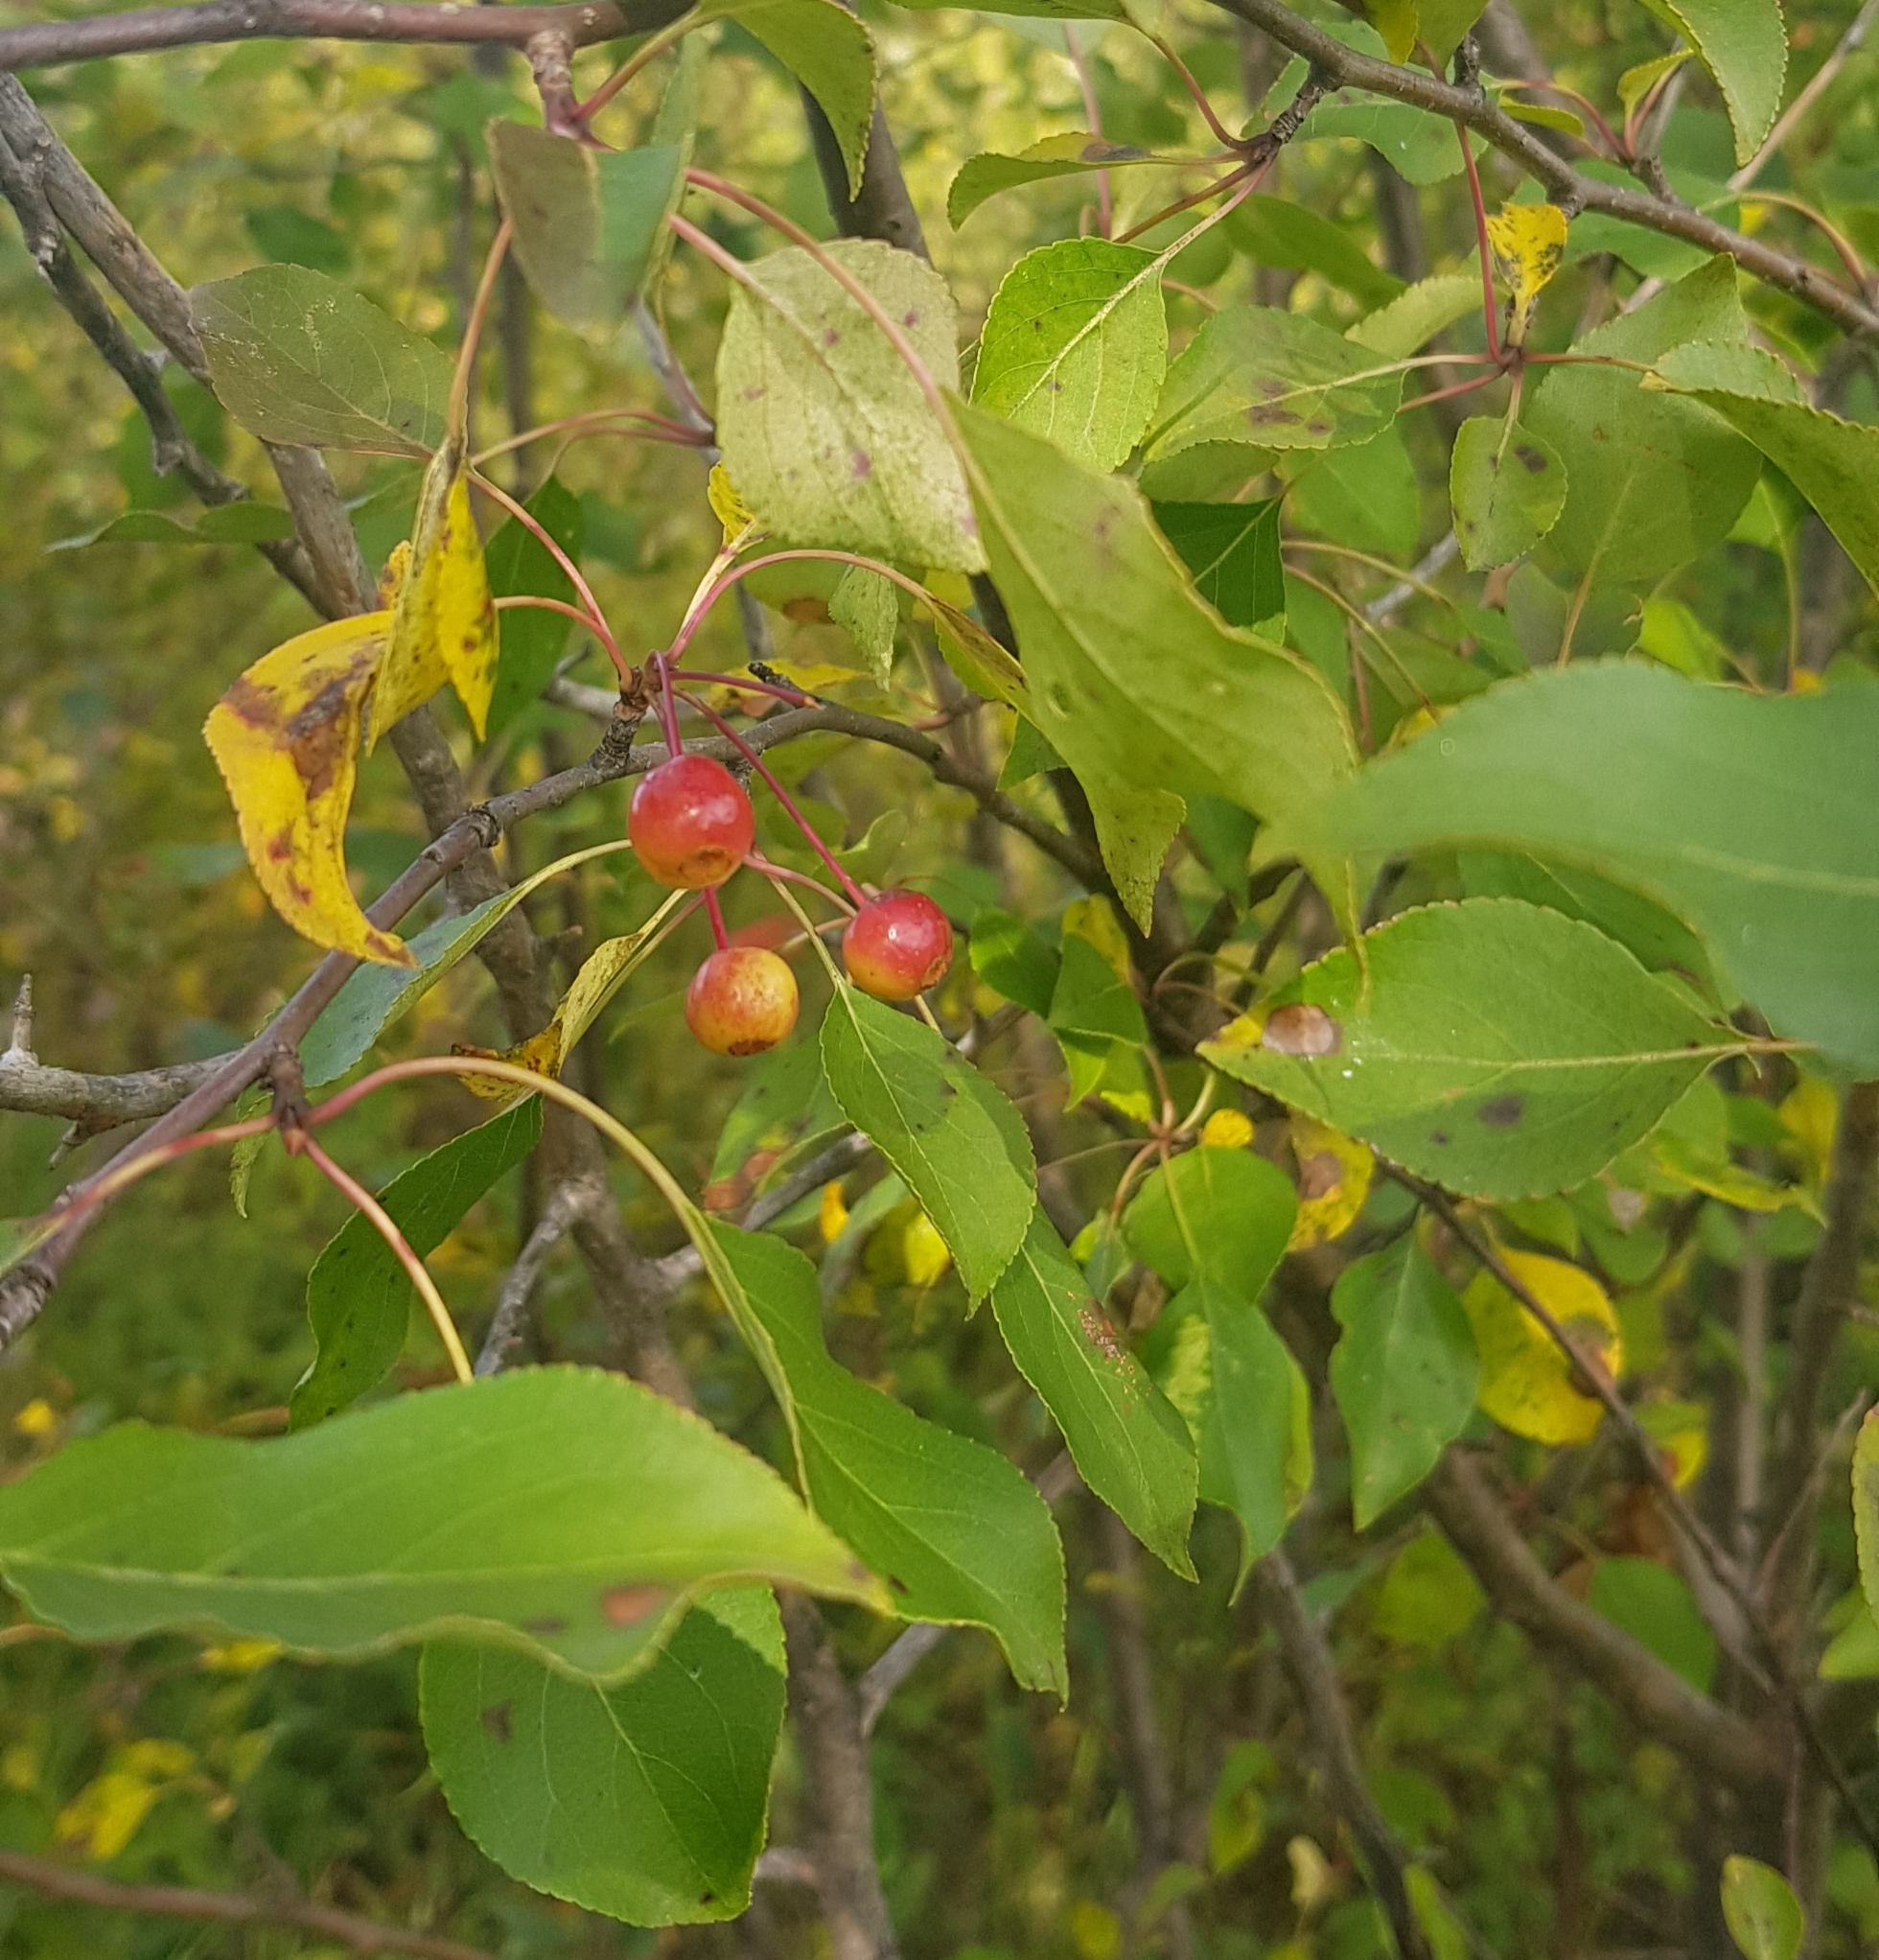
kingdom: Plantae
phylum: Tracheophyta
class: Magnoliopsida
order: Rosales
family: Rosaceae
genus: Malus
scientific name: Malus baccata
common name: Siberian crab
